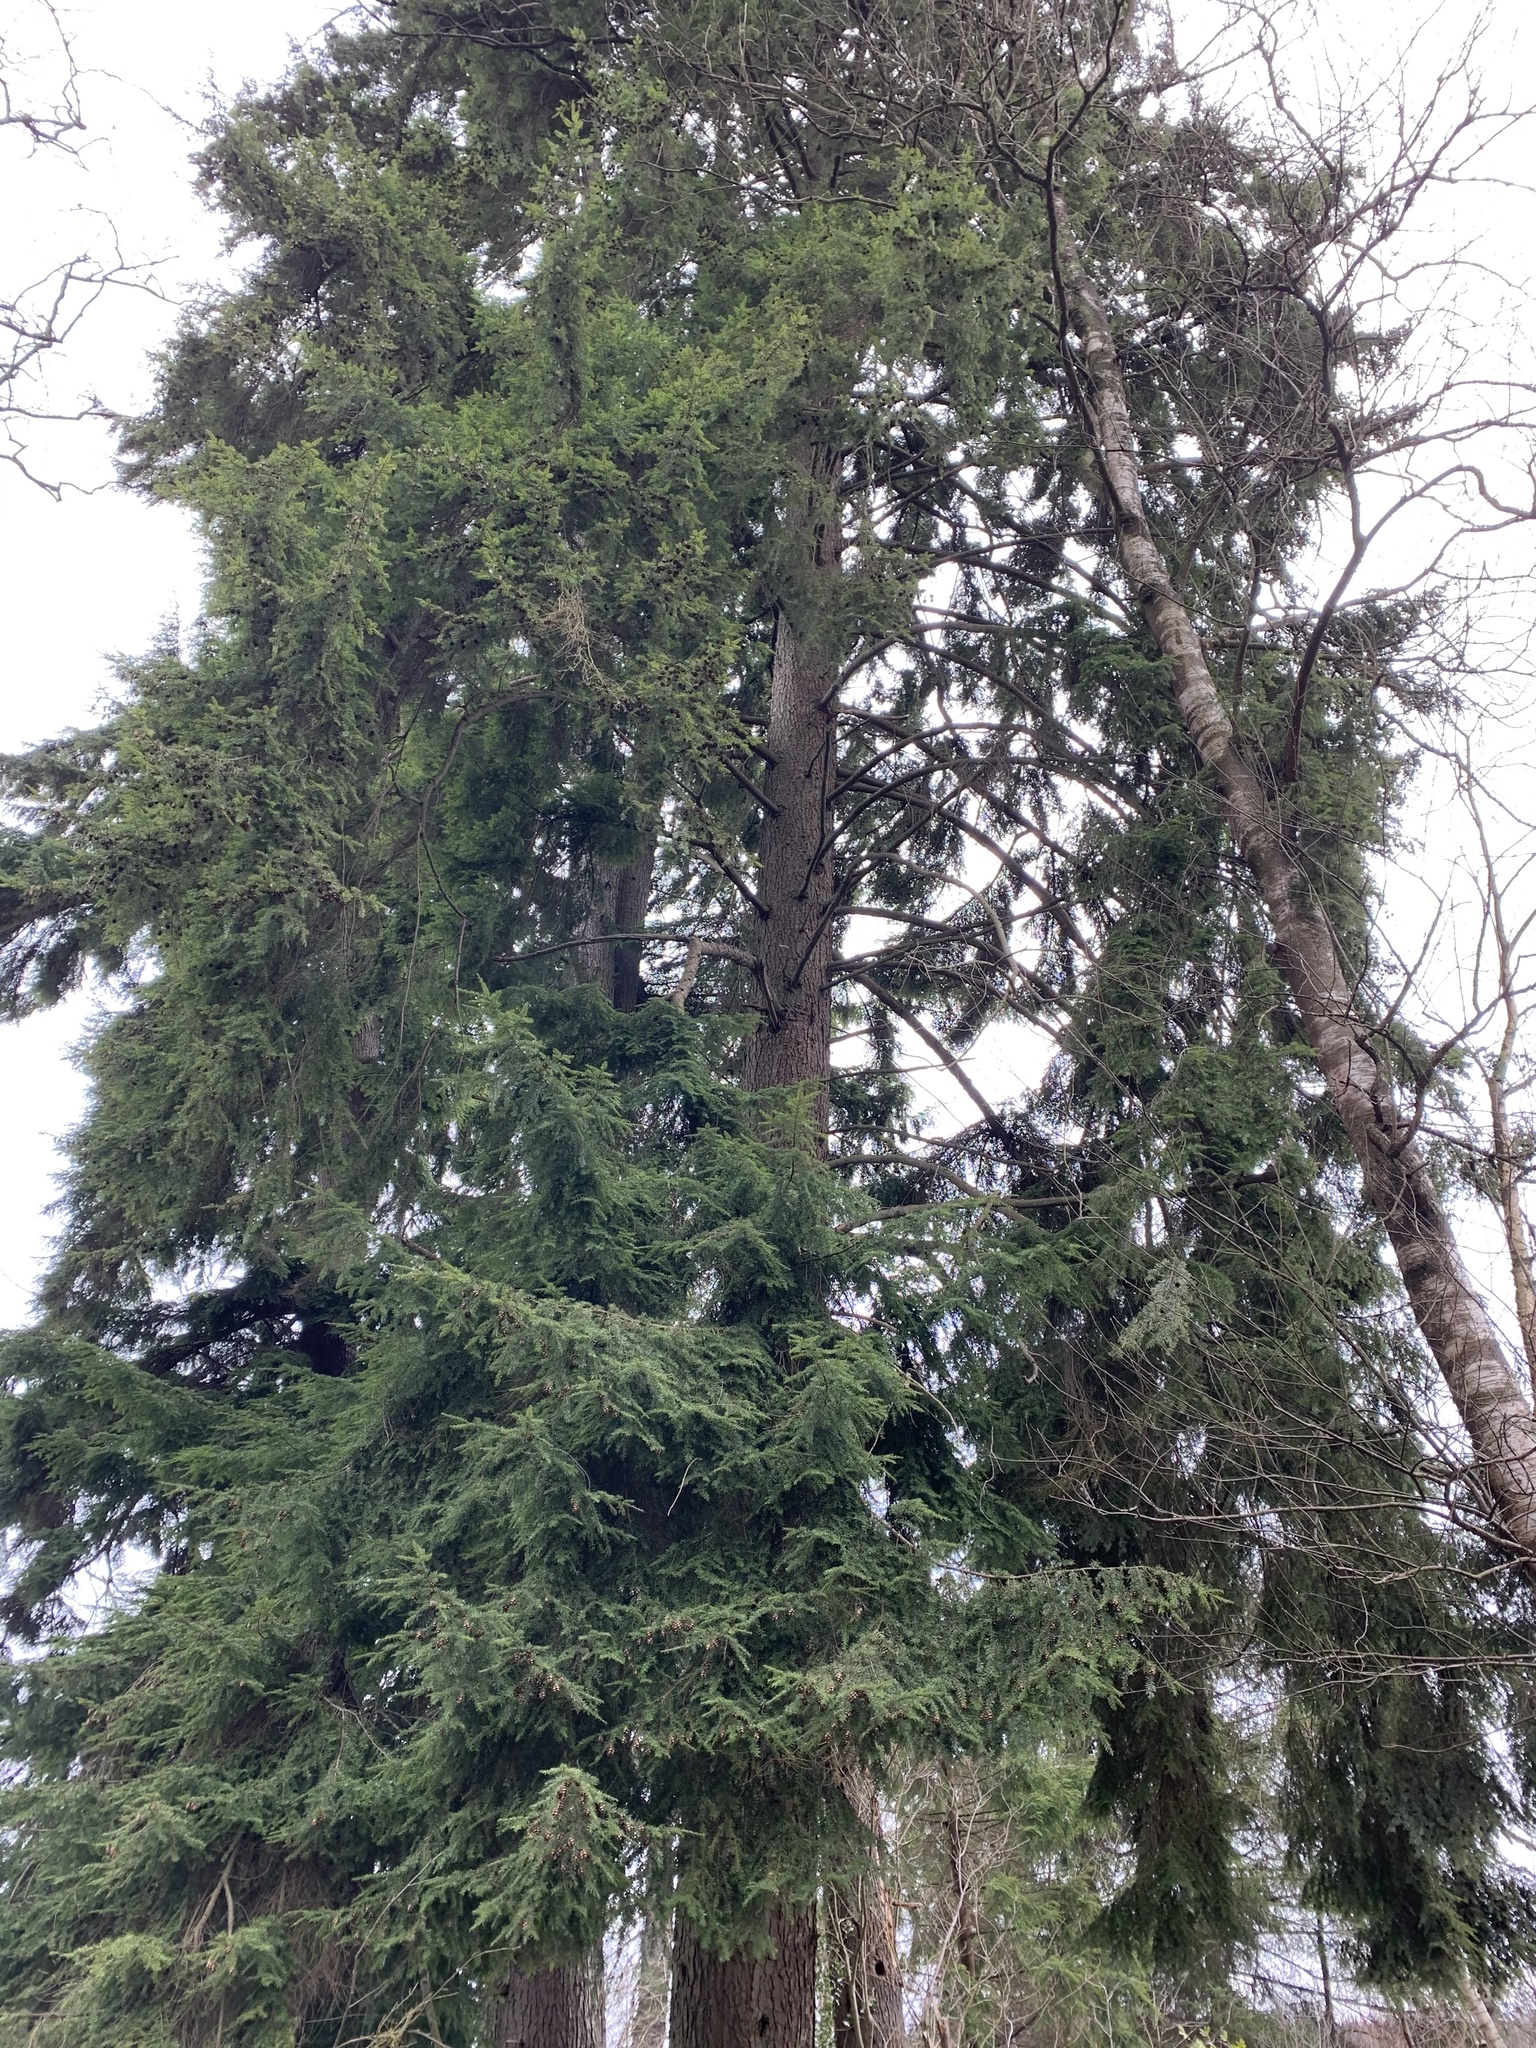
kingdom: Plantae
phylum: Tracheophyta
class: Pinopsida
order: Pinales
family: Pinaceae
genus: Tsuga
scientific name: Tsuga heterophylla
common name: Western hemlock
